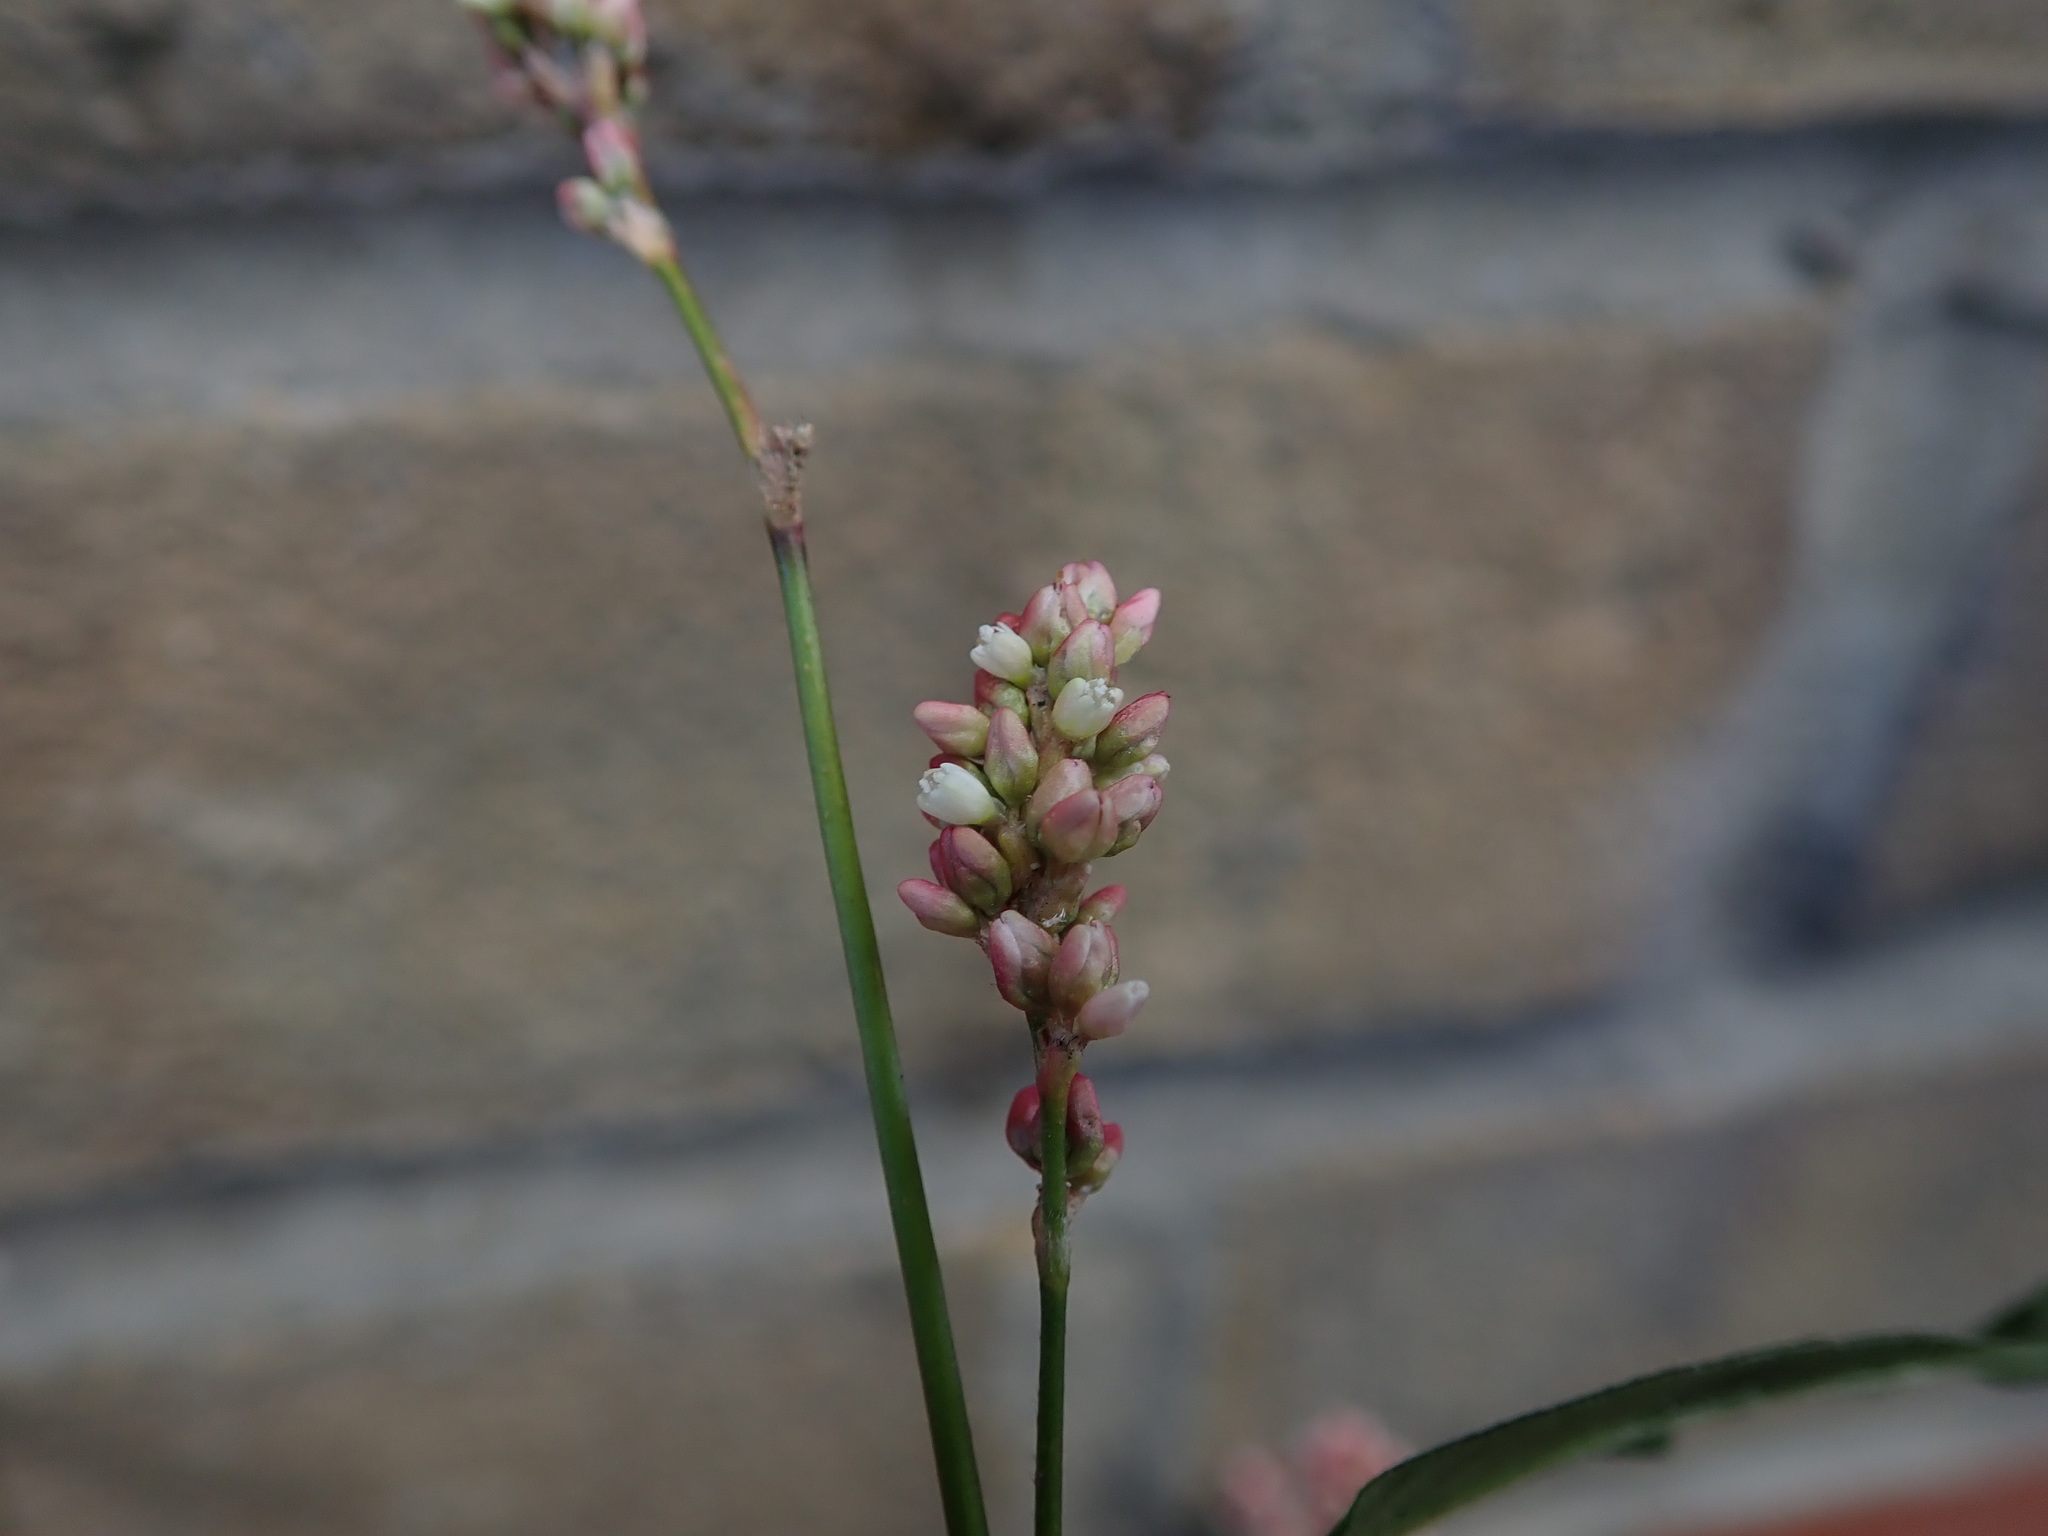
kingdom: Plantae
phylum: Tracheophyta
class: Magnoliopsida
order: Caryophyllales
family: Polygonaceae
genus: Persicaria
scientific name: Persicaria maculosa
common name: Redshank
